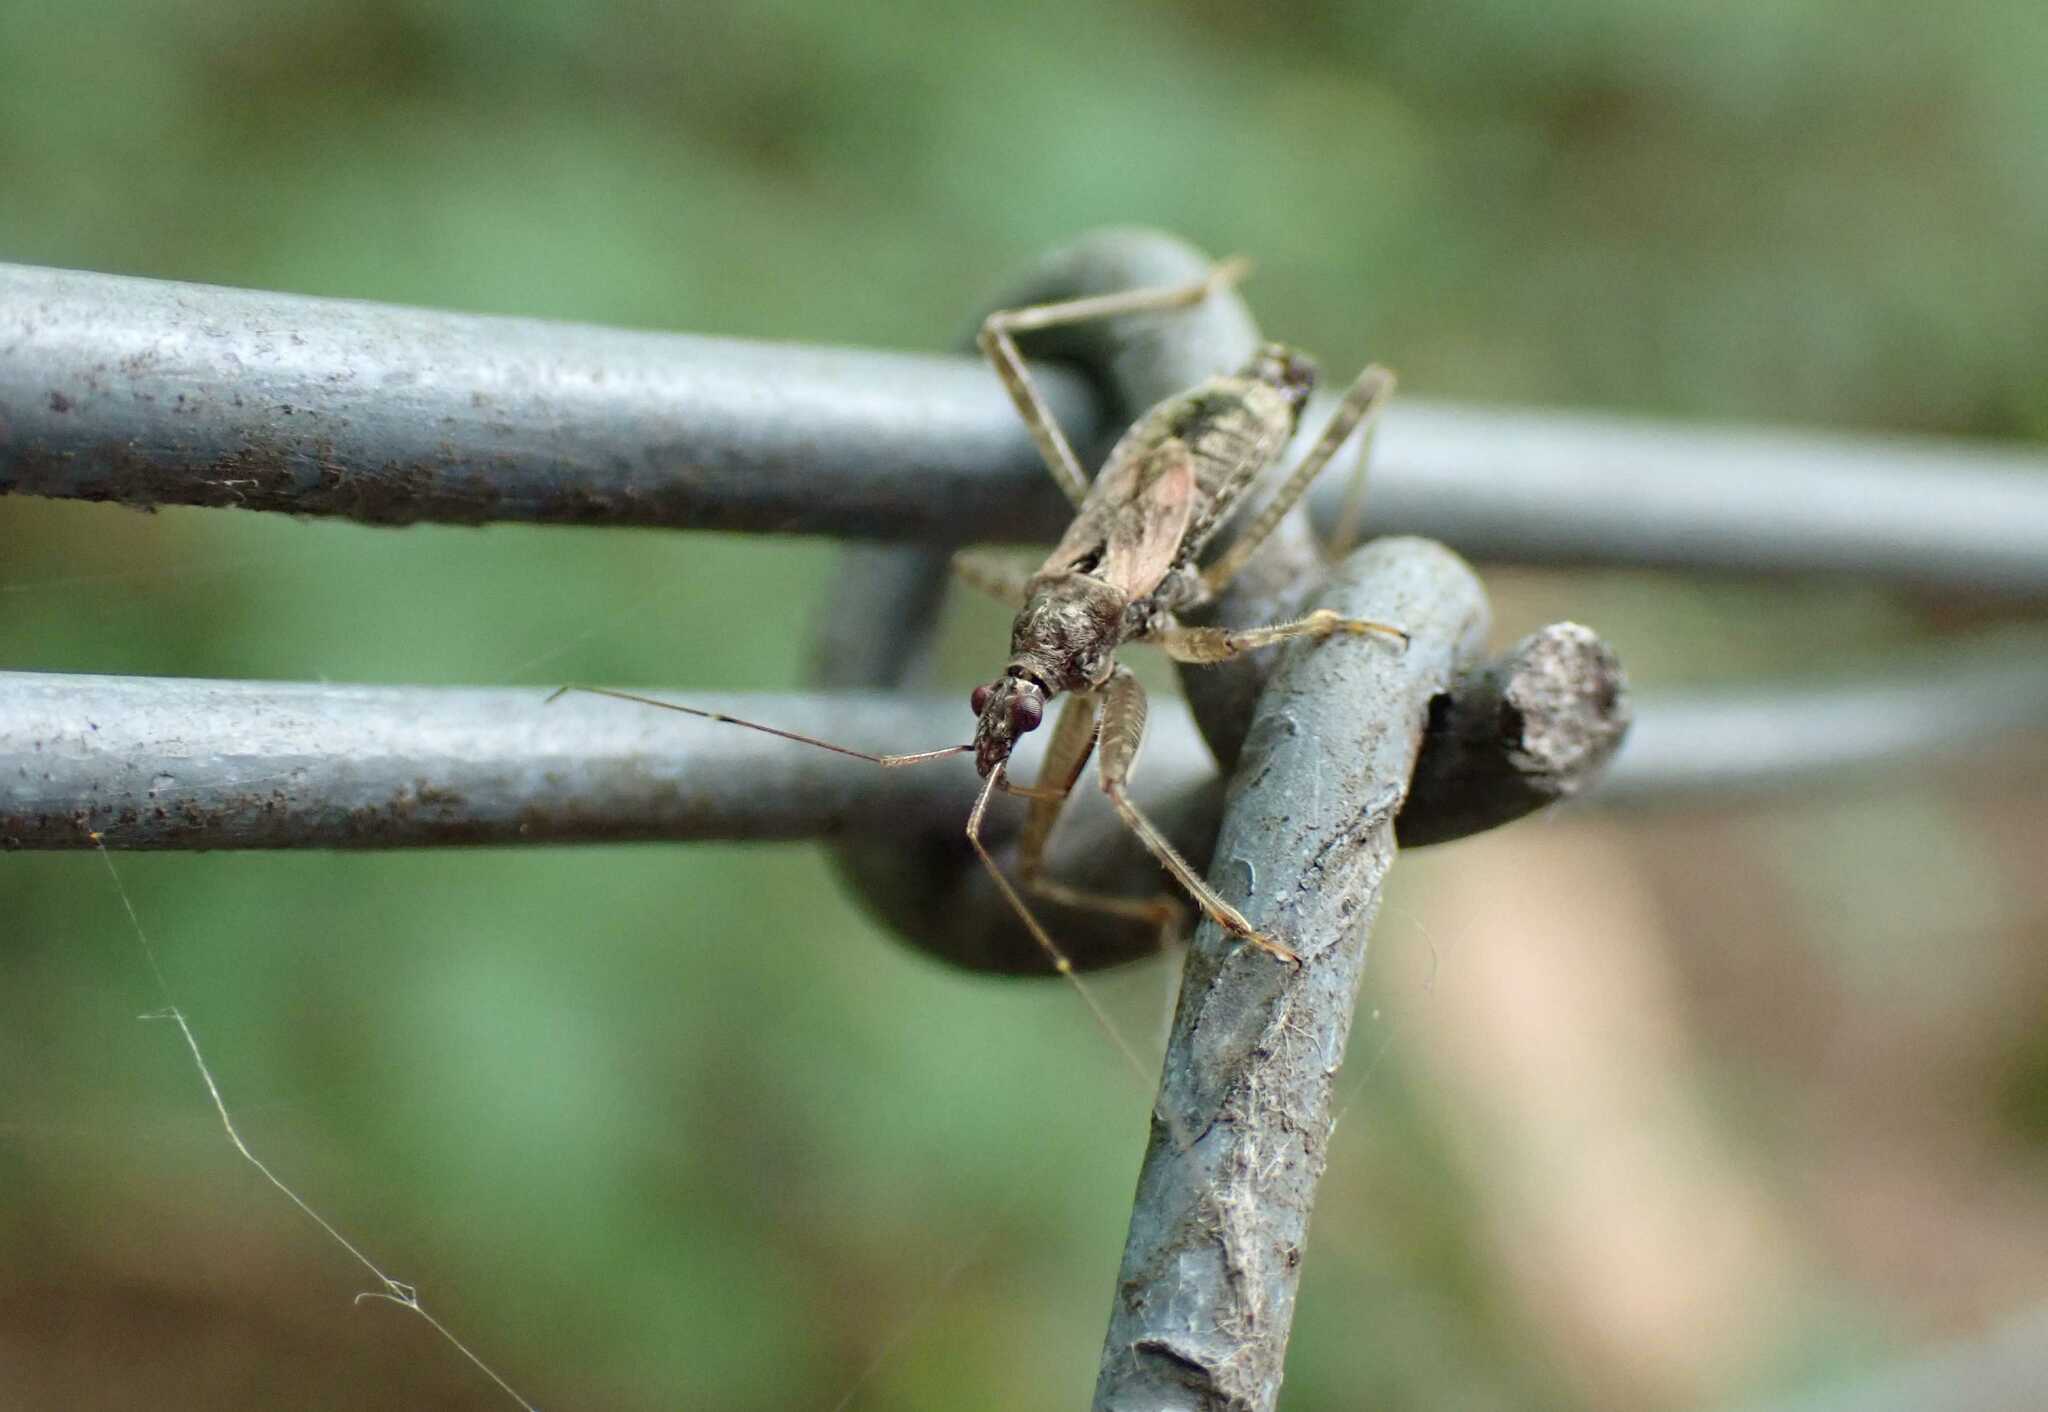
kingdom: Animalia
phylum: Arthropoda
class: Insecta
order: Hemiptera
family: Nabidae
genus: Himacerus
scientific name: Himacerus apterus
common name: Tree damsel bug
